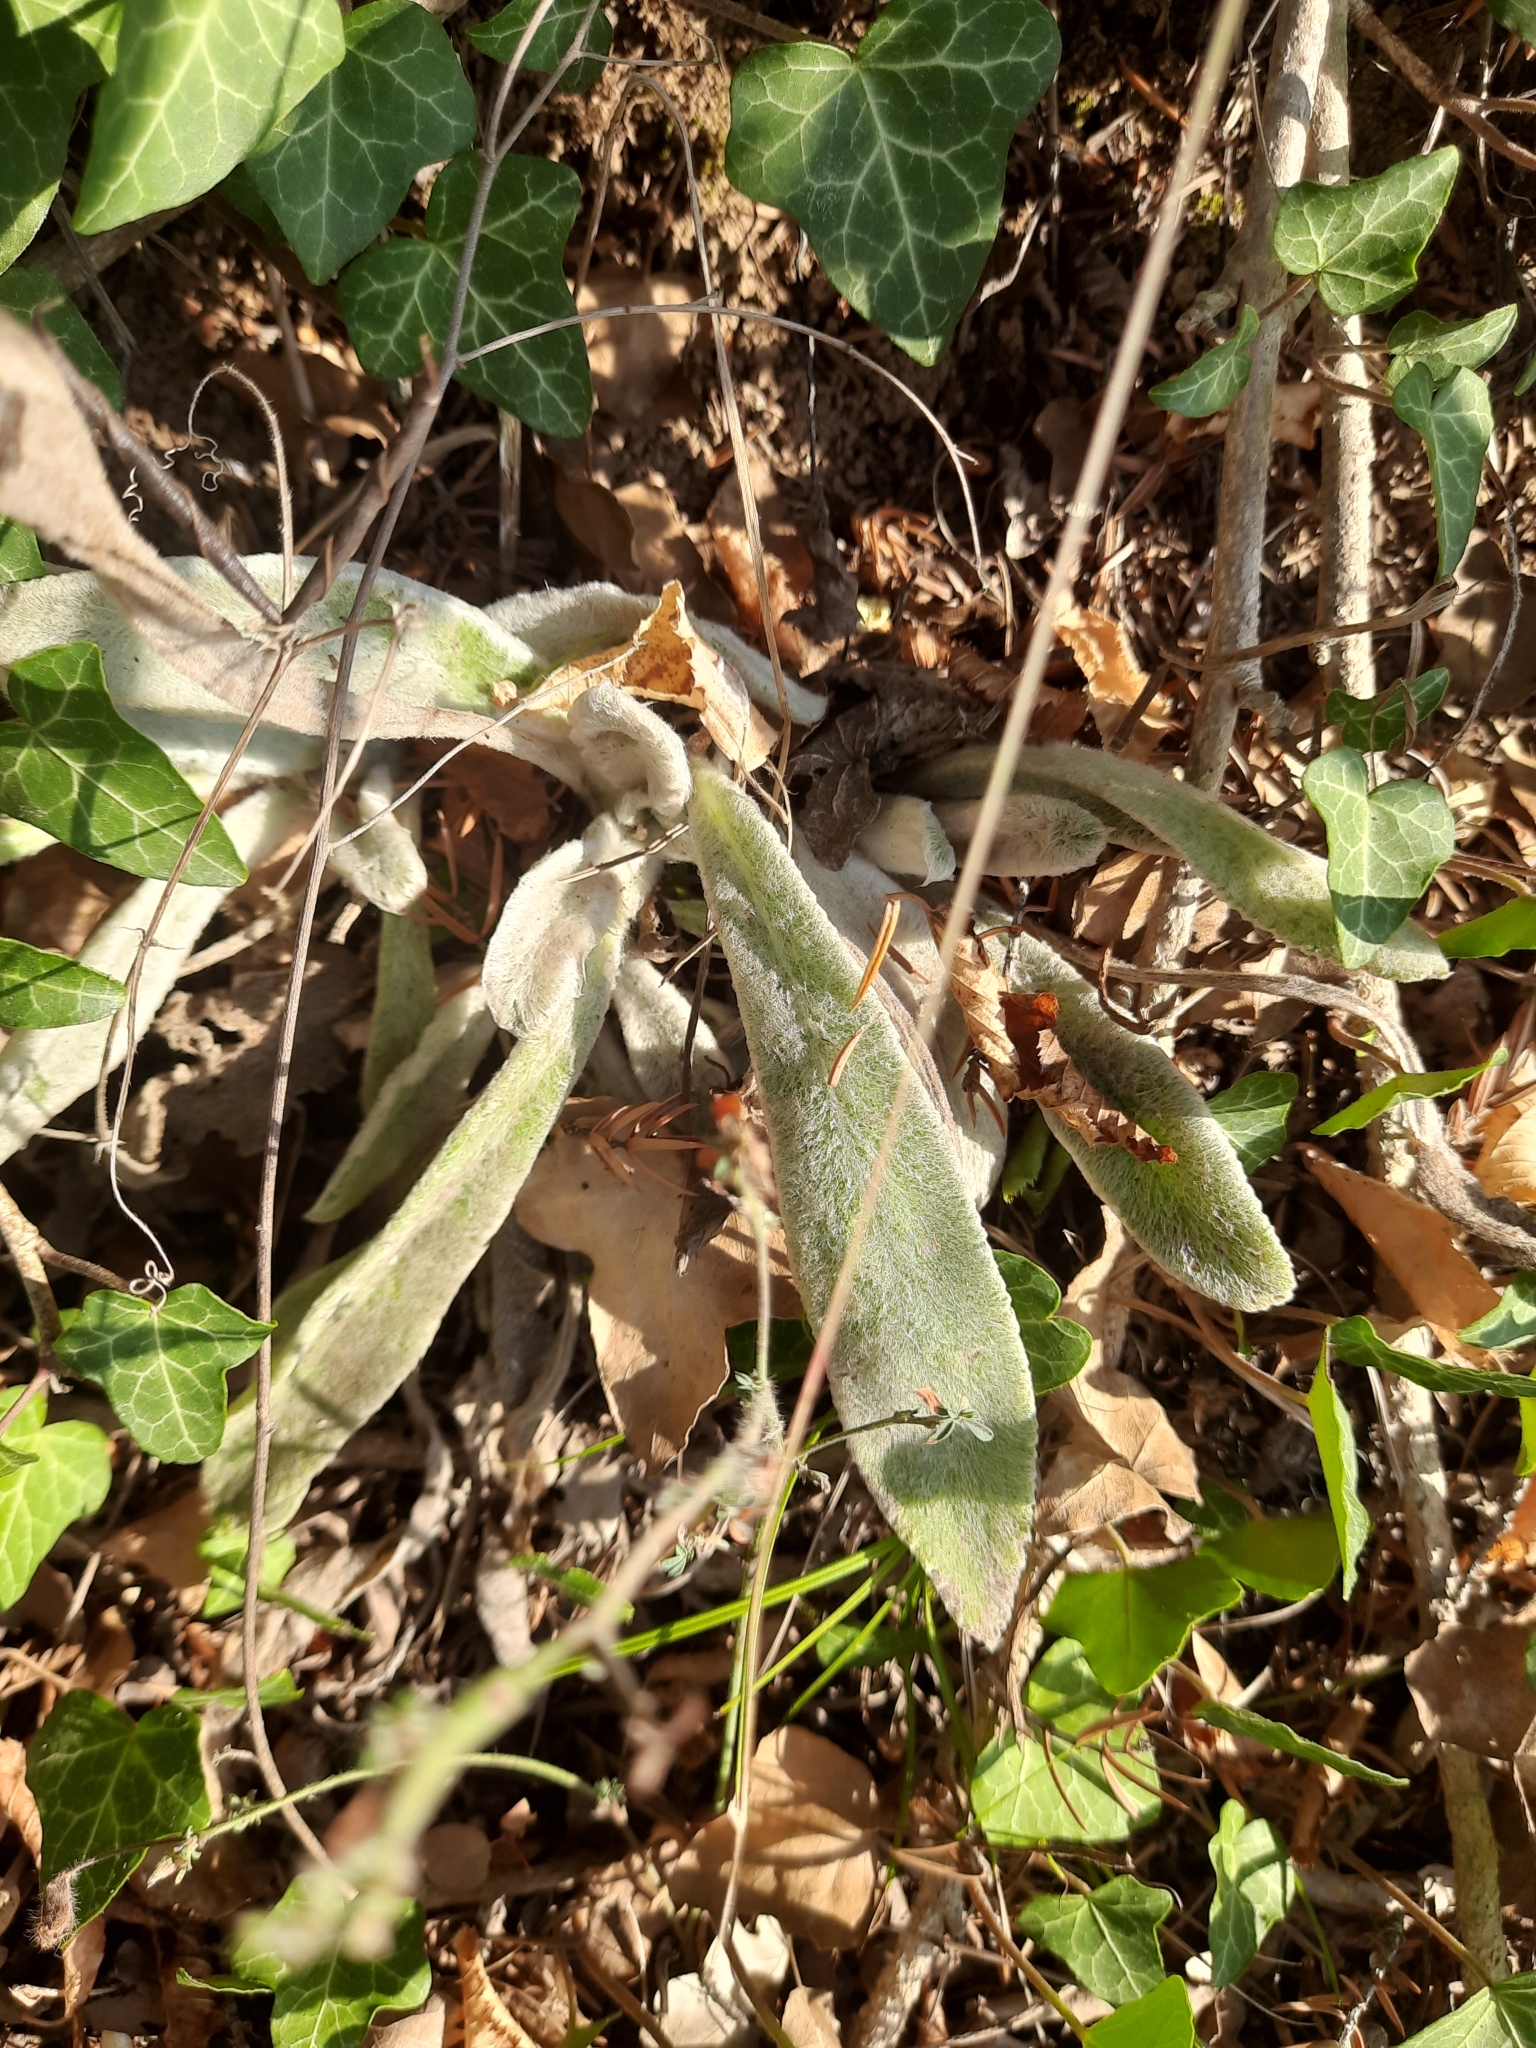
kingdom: Plantae
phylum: Tracheophyta
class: Magnoliopsida
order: Lamiales
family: Lamiaceae
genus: Stachys
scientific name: Stachys cretica
